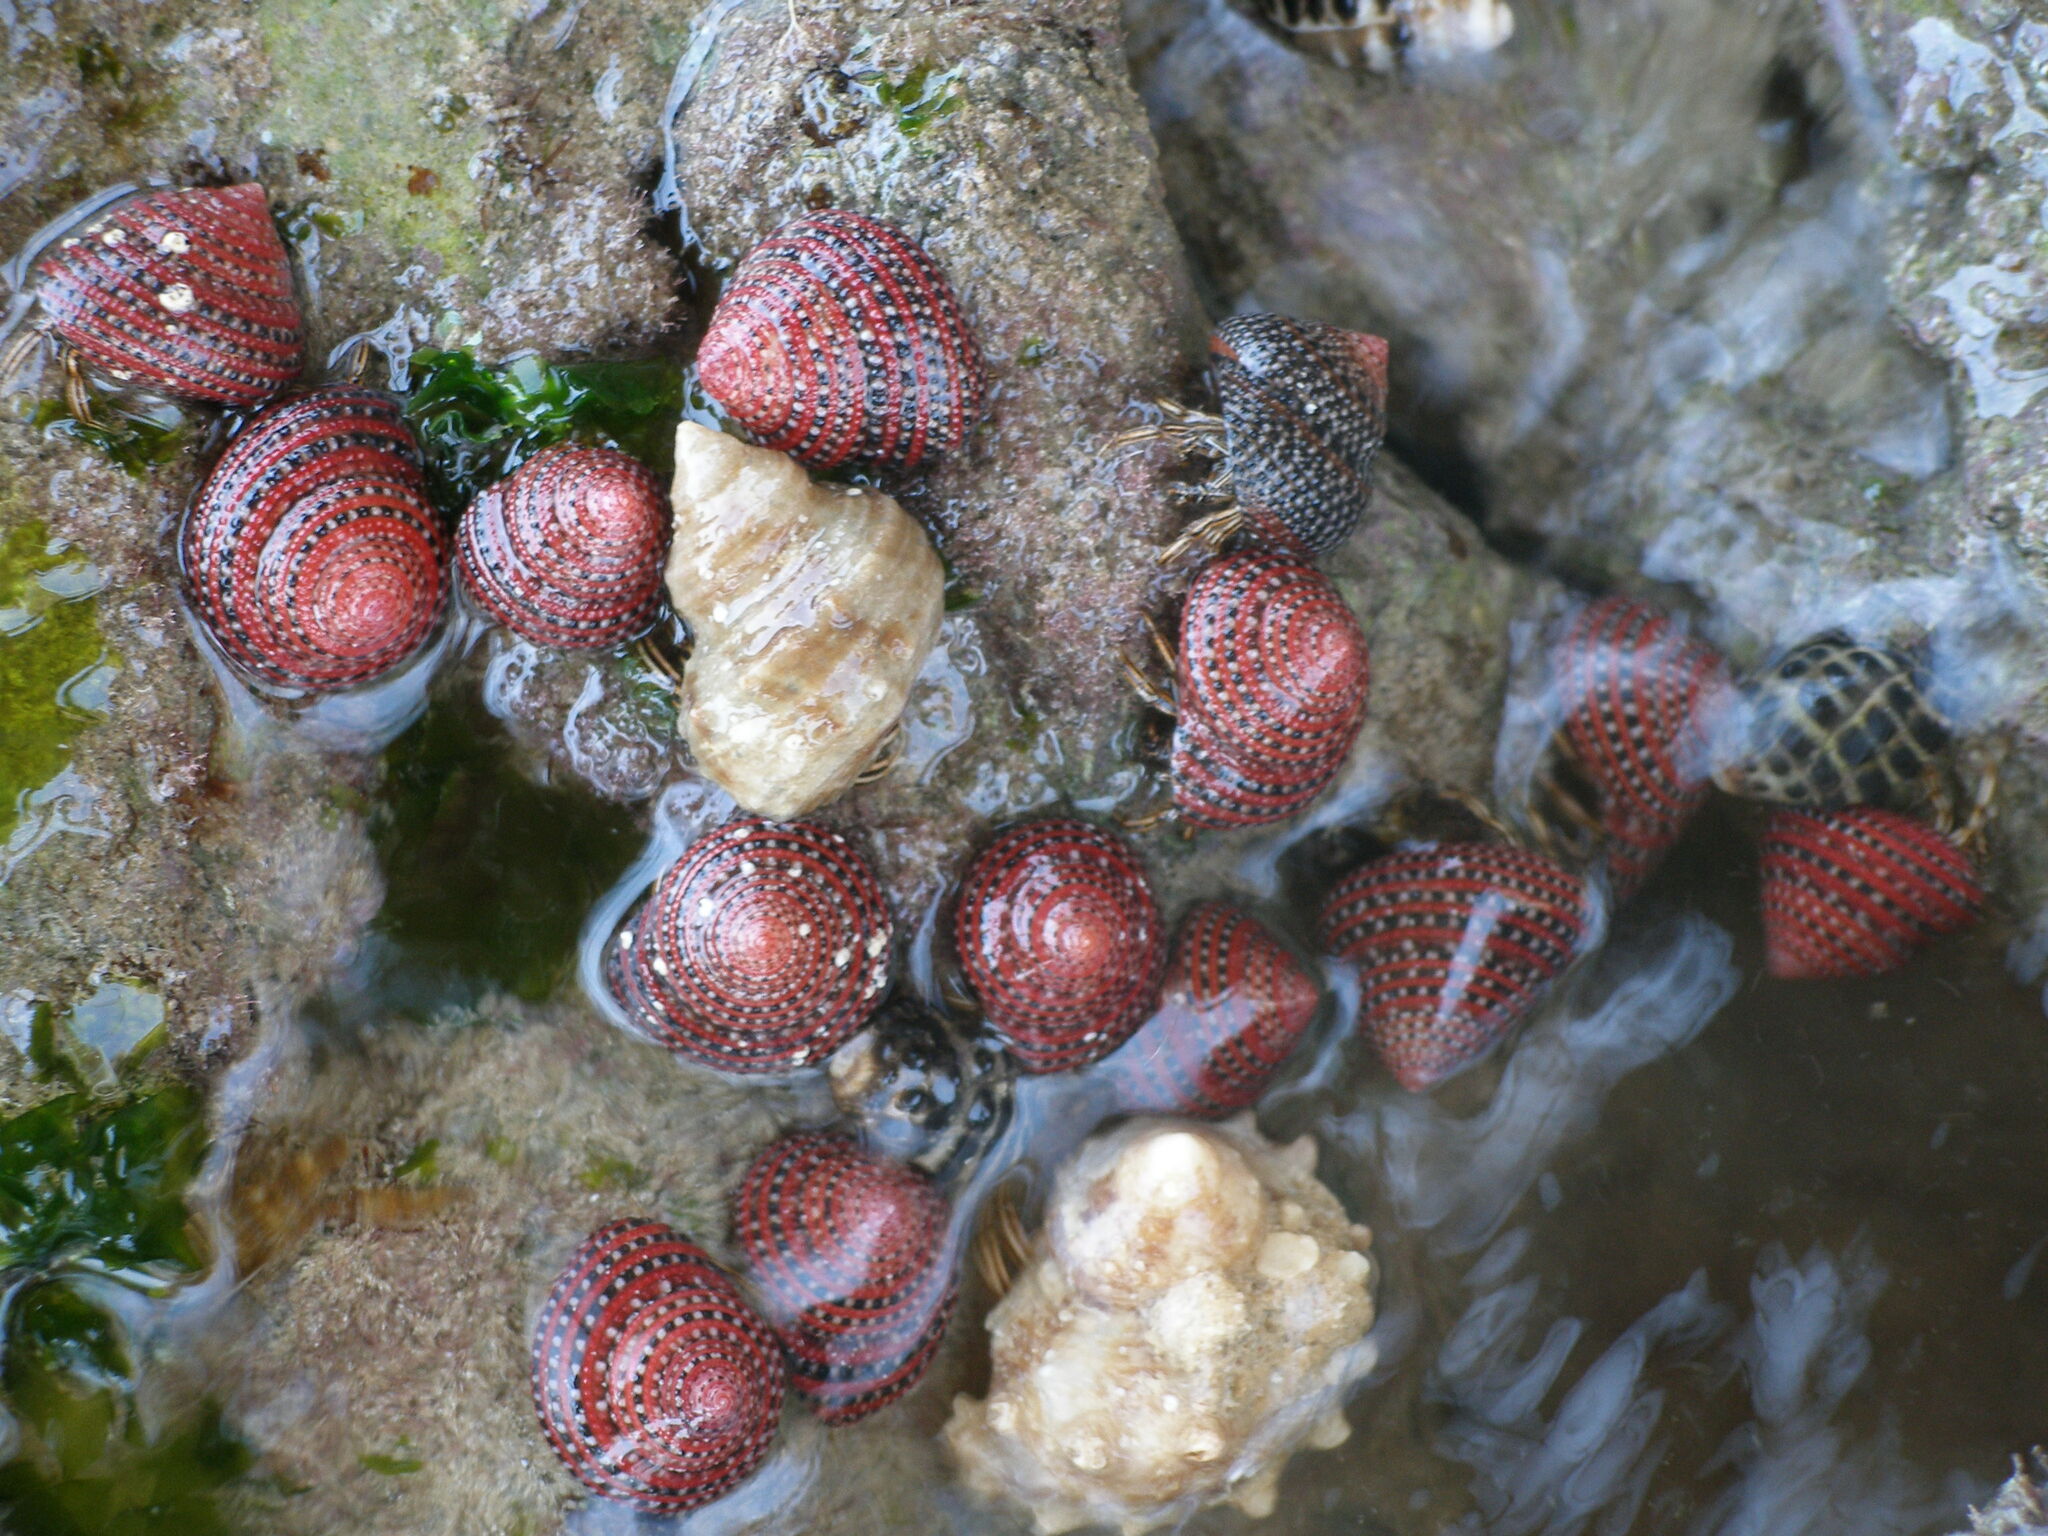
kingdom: Animalia
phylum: Mollusca
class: Gastropoda
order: Trochida
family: Trochidae
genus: Clanculus
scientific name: Clanculus pharaonius
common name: Strawberry top
